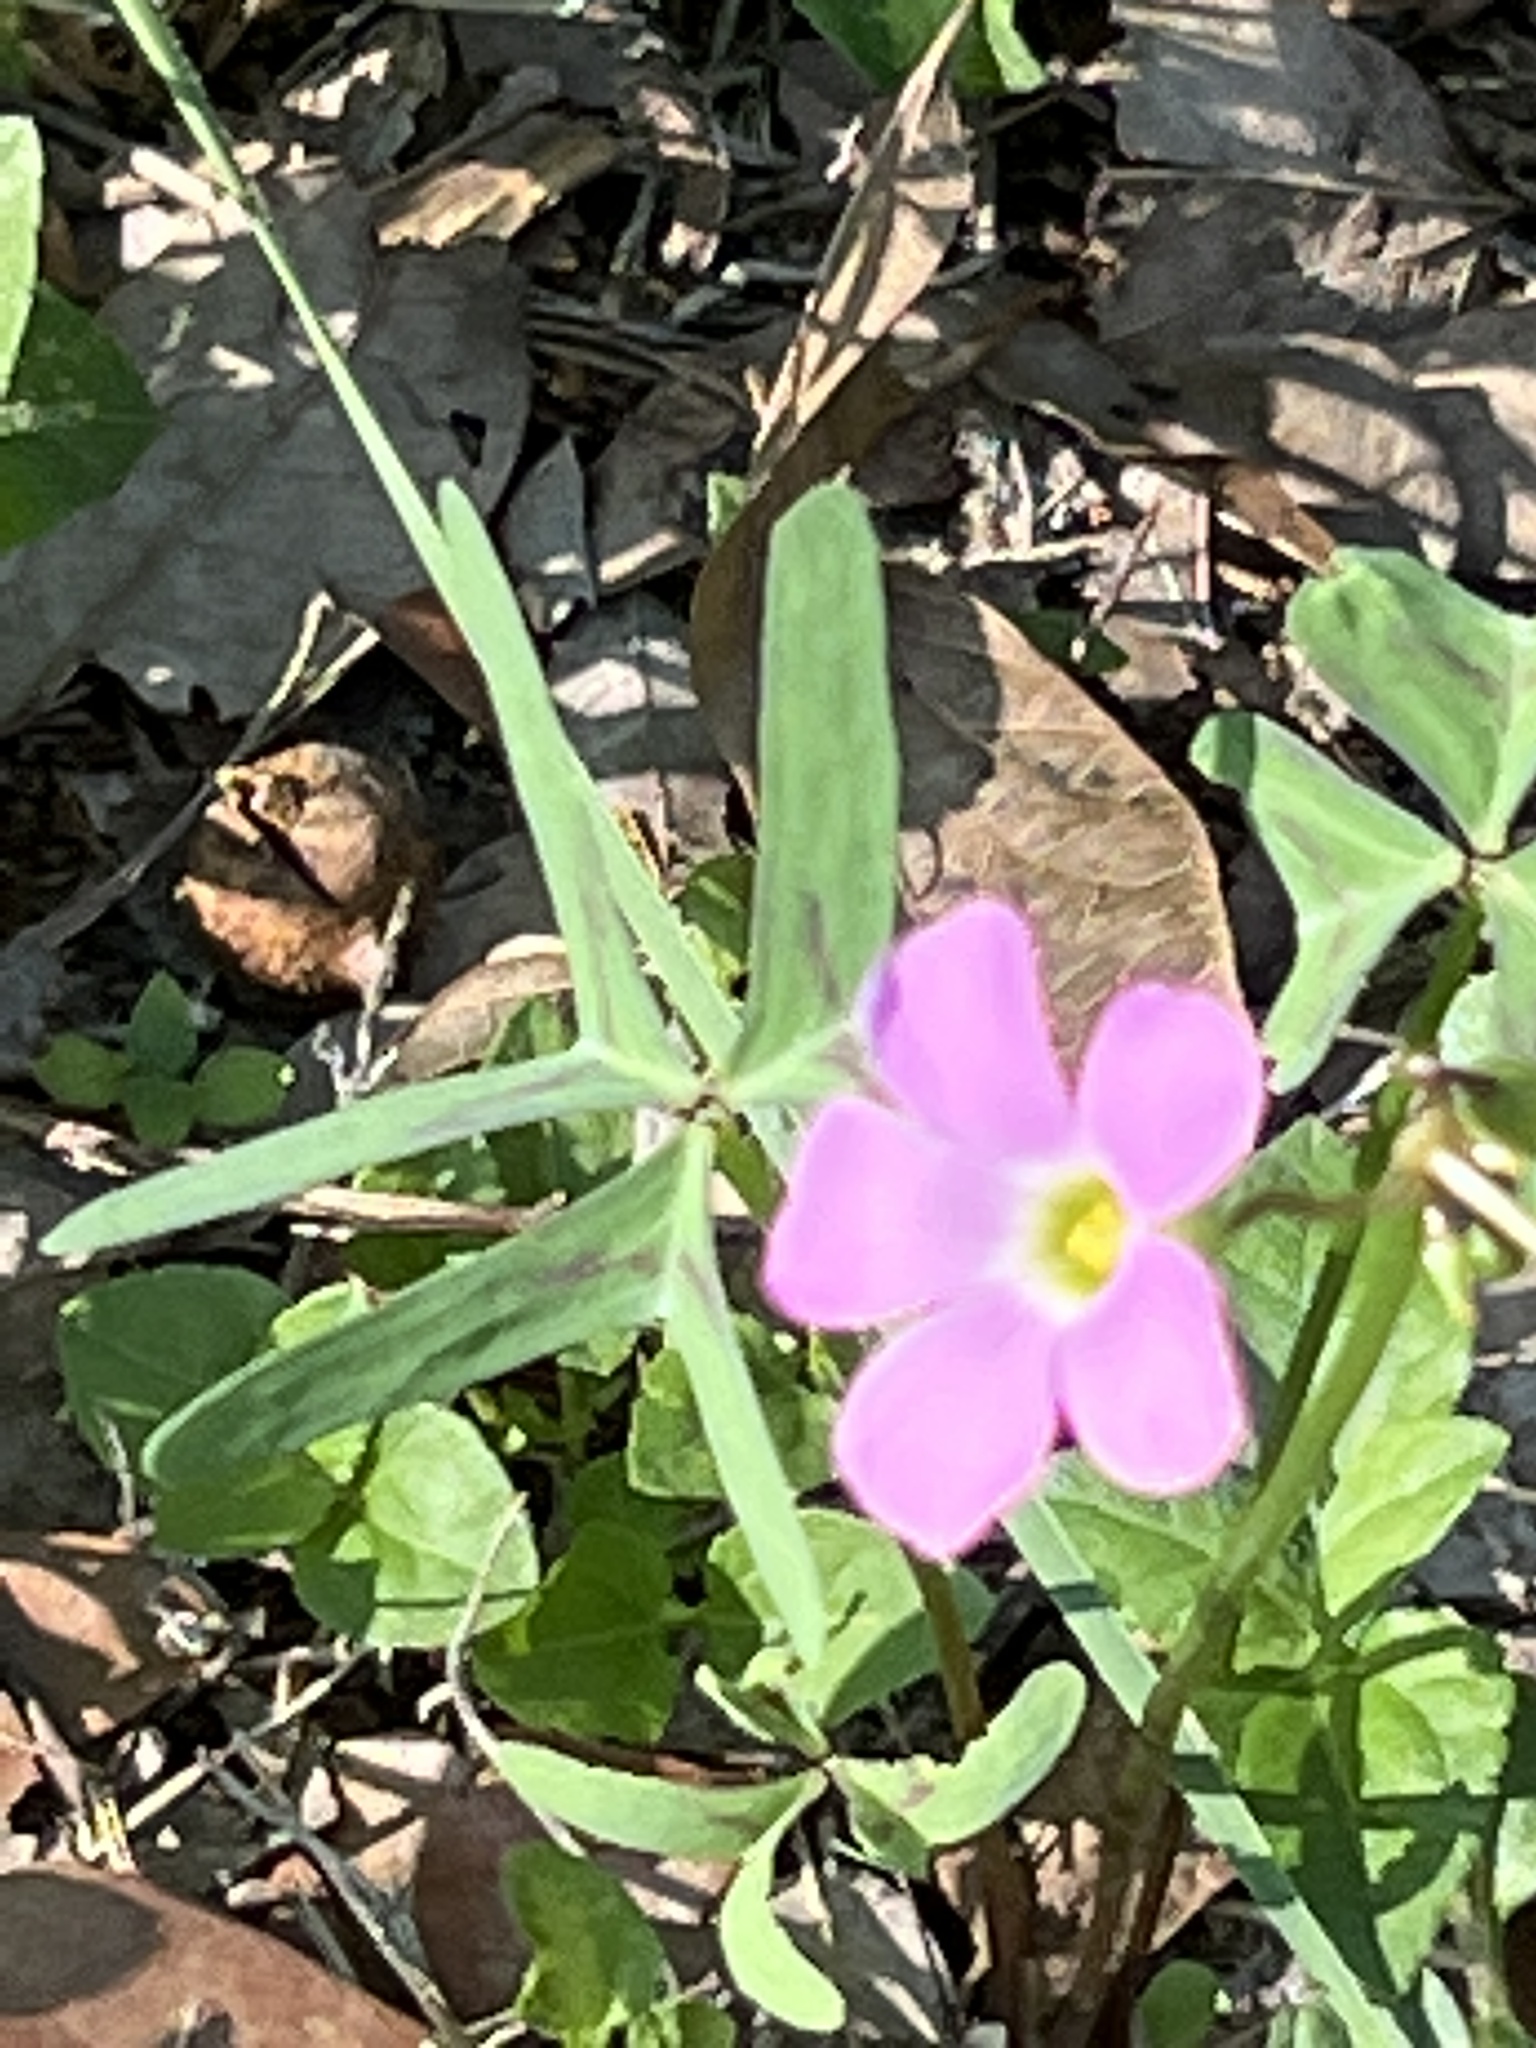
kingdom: Plantae
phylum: Tracheophyta
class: Magnoliopsida
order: Oxalidales
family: Oxalidaceae
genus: Oxalis
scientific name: Oxalis drummondii
